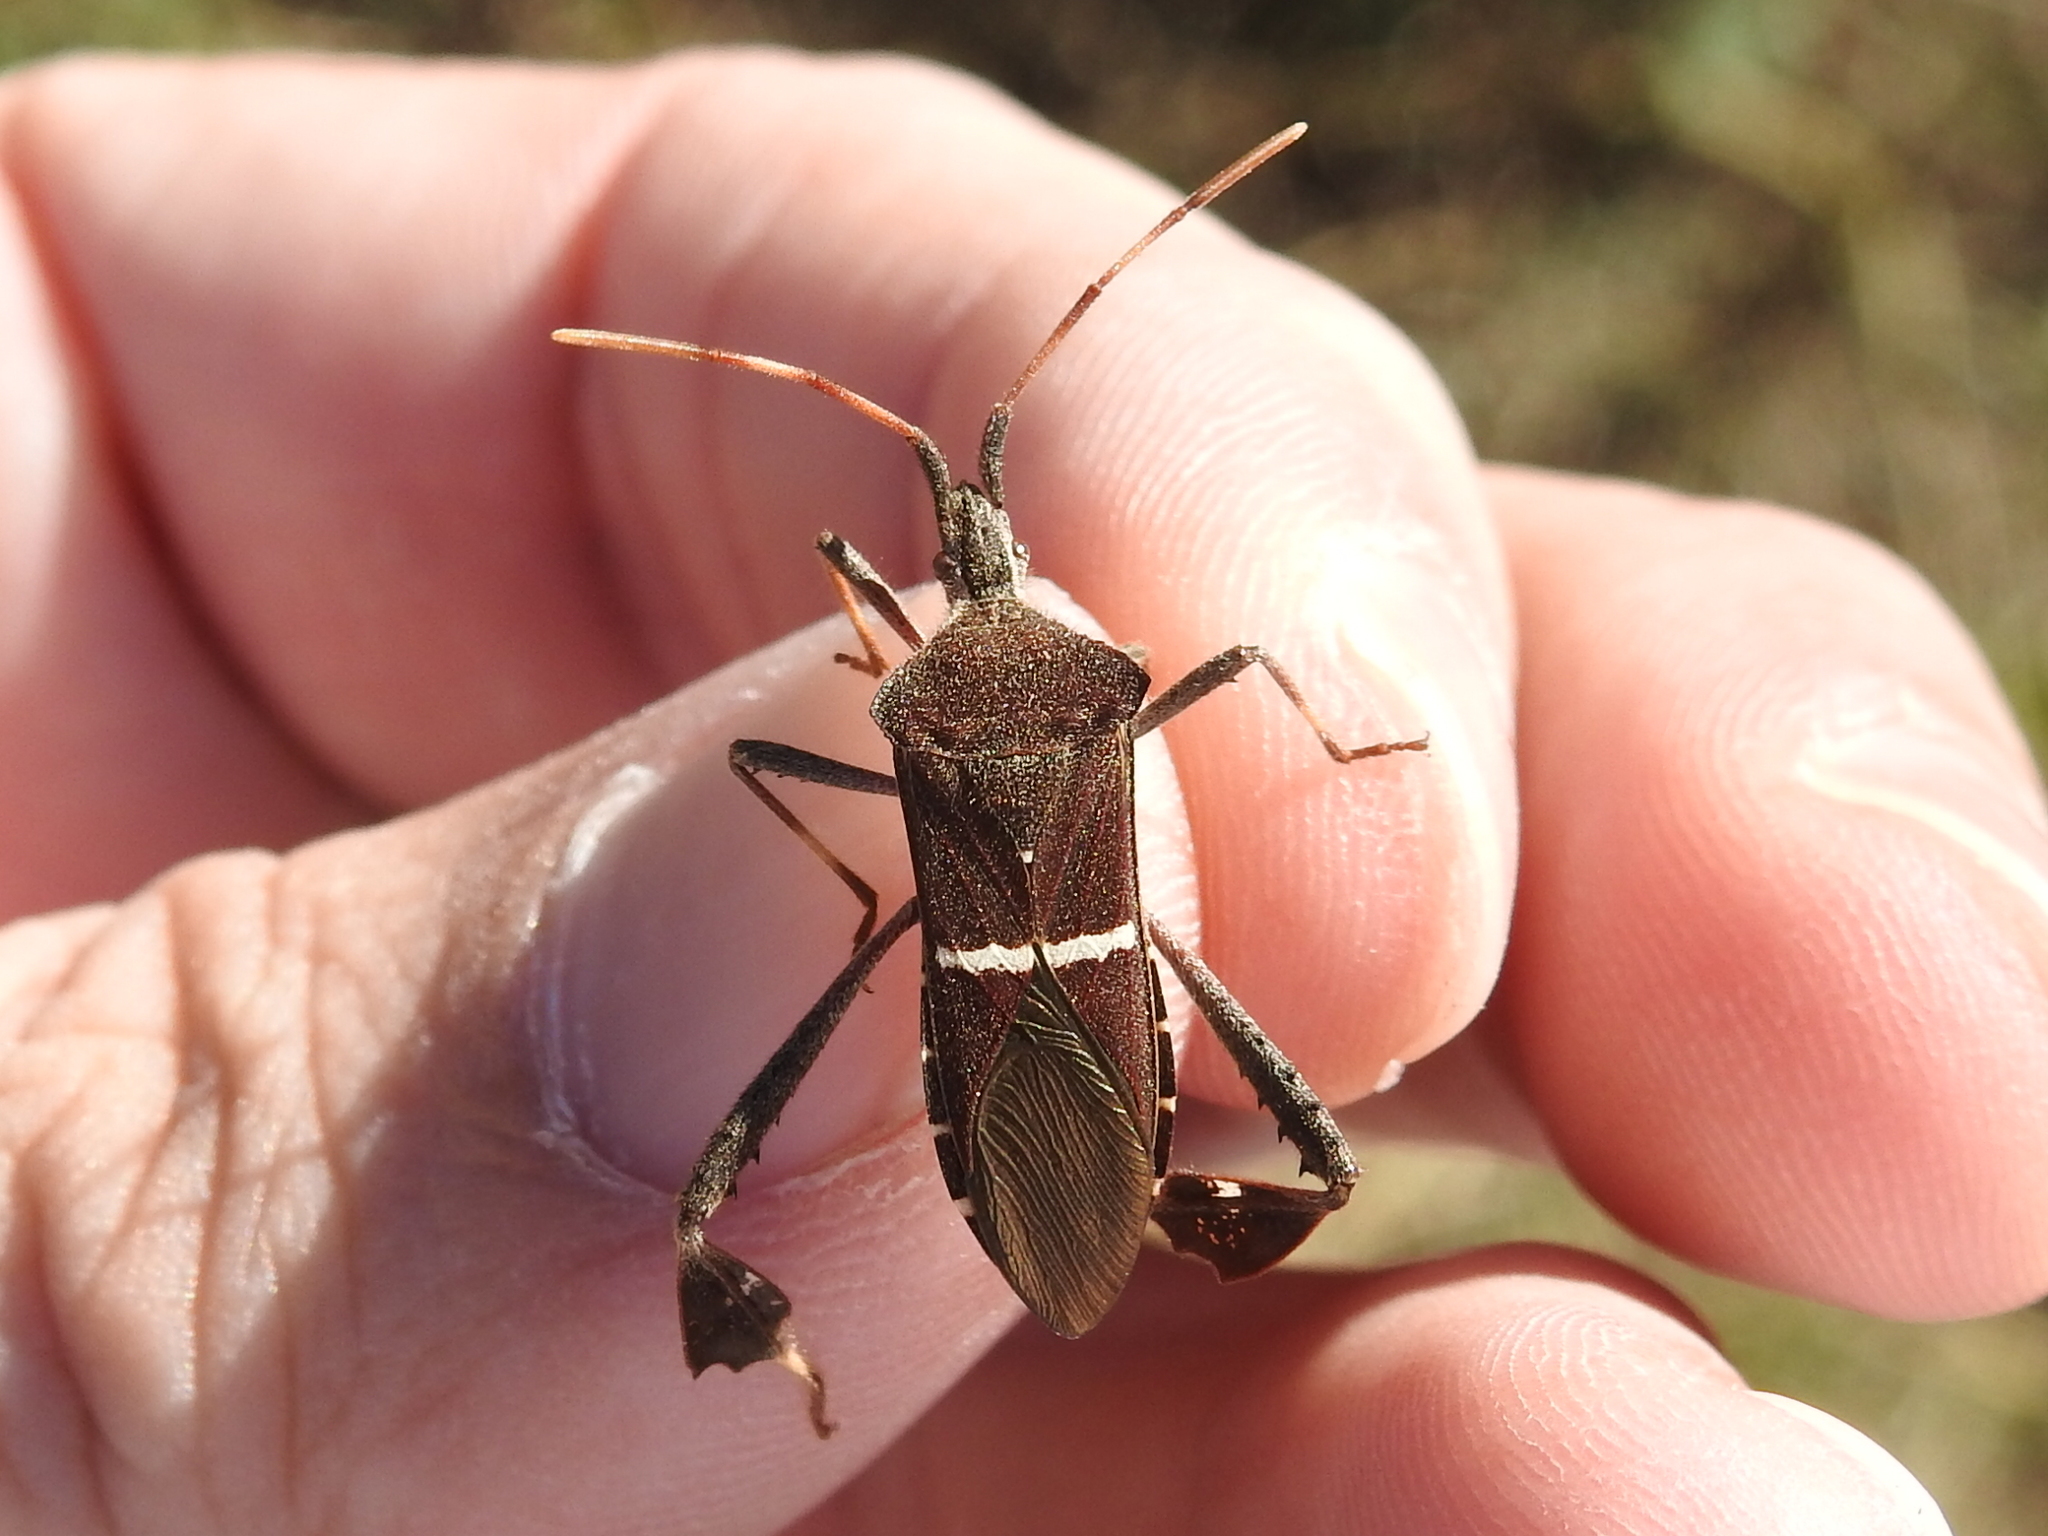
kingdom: Animalia
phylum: Arthropoda
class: Insecta
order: Hemiptera
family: Coreidae
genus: Leptoglossus
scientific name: Leptoglossus phyllopus
